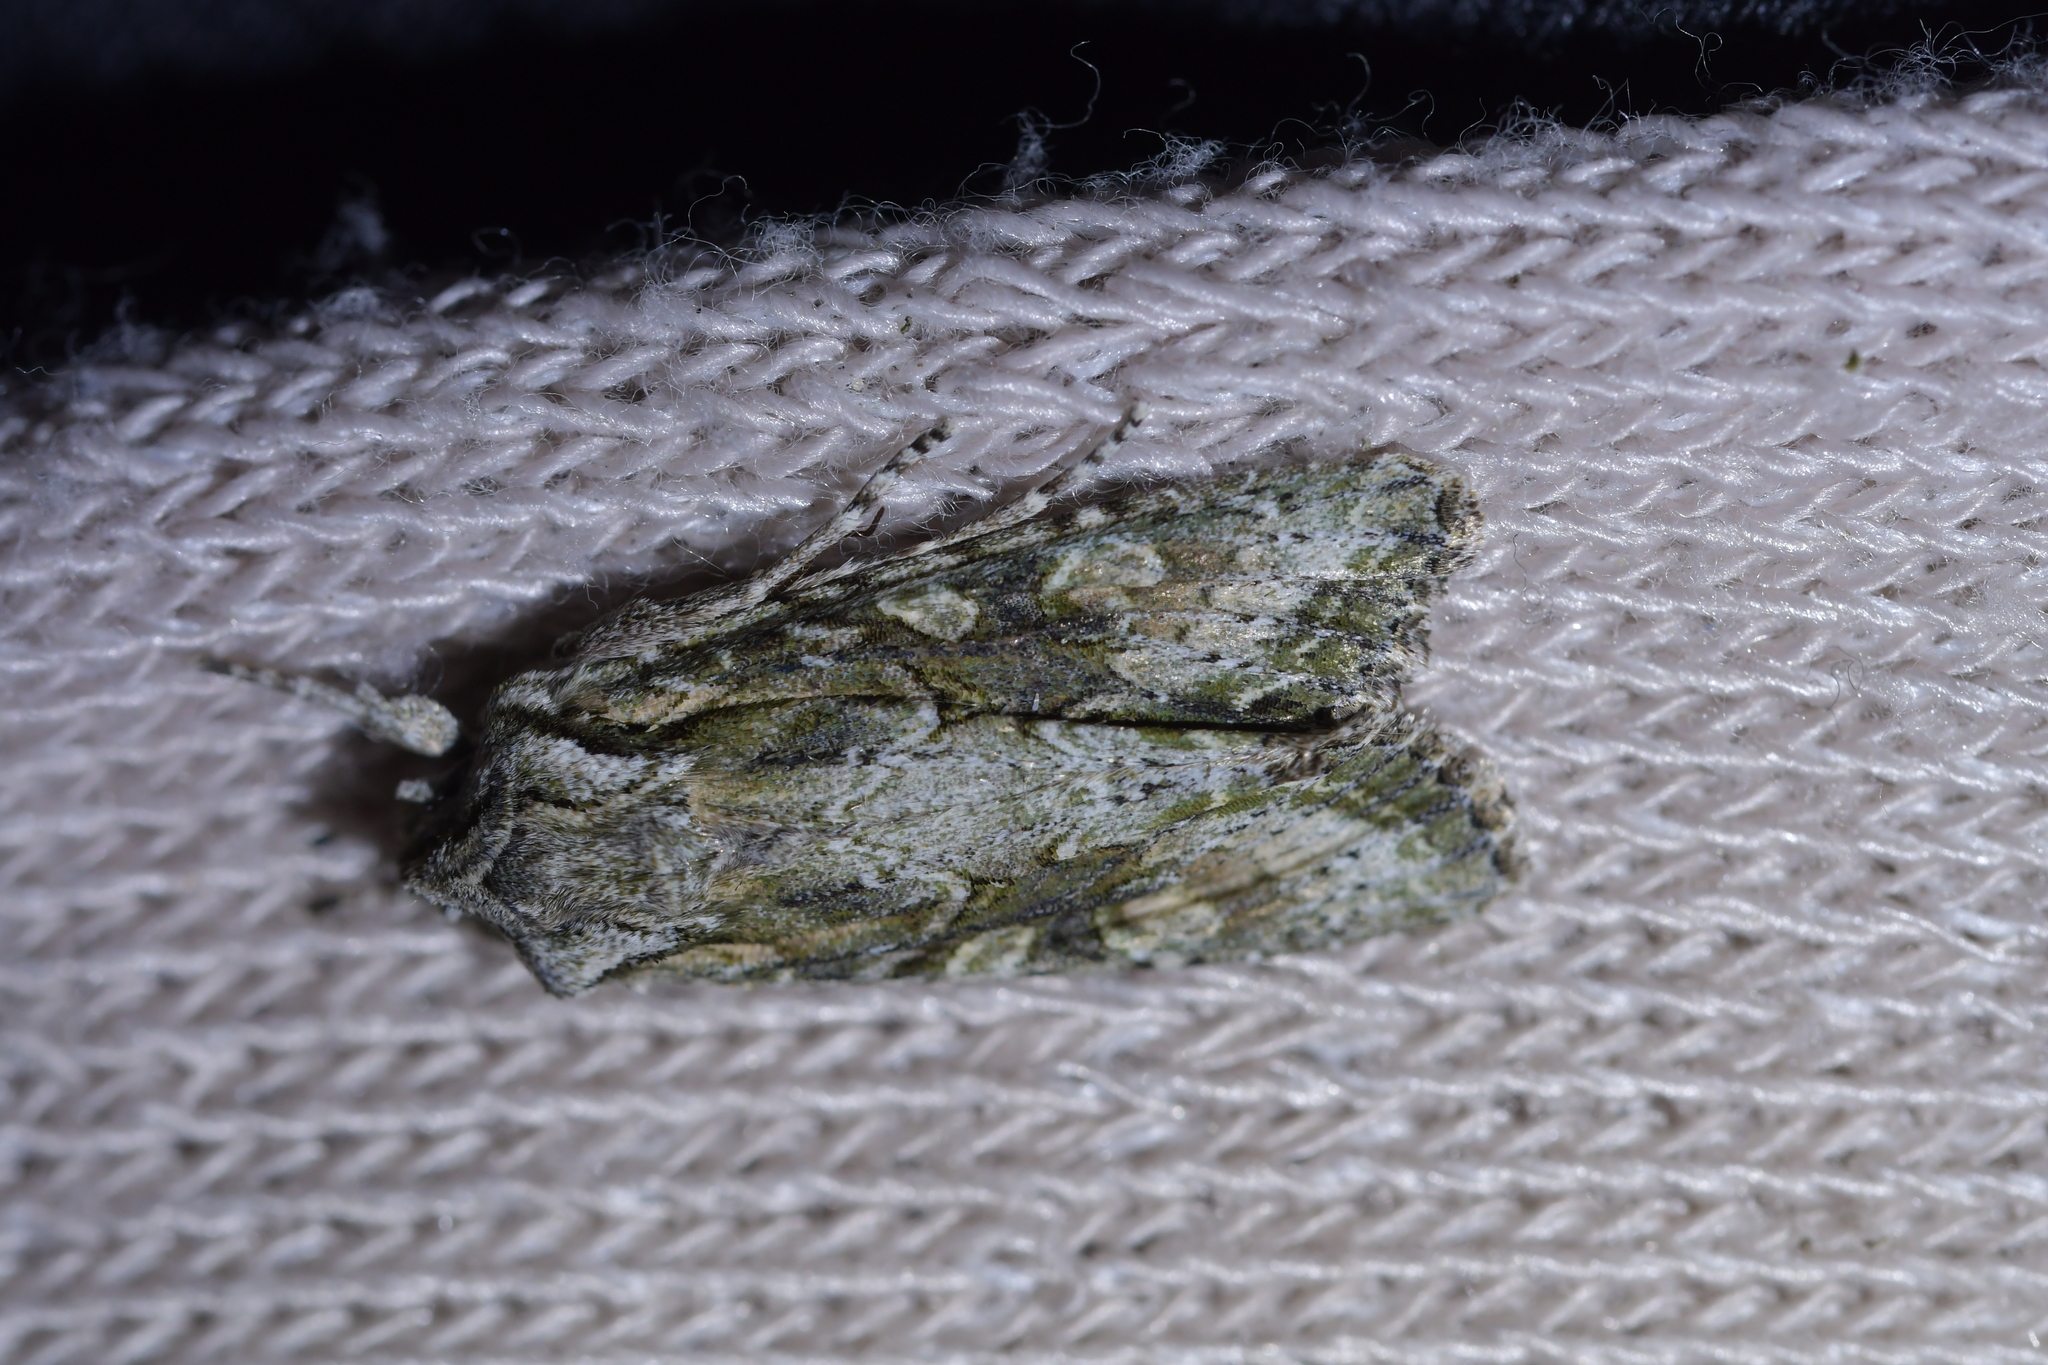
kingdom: Animalia
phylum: Arthropoda
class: Insecta
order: Lepidoptera
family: Noctuidae
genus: Ichneutica
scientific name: Ichneutica mutans
